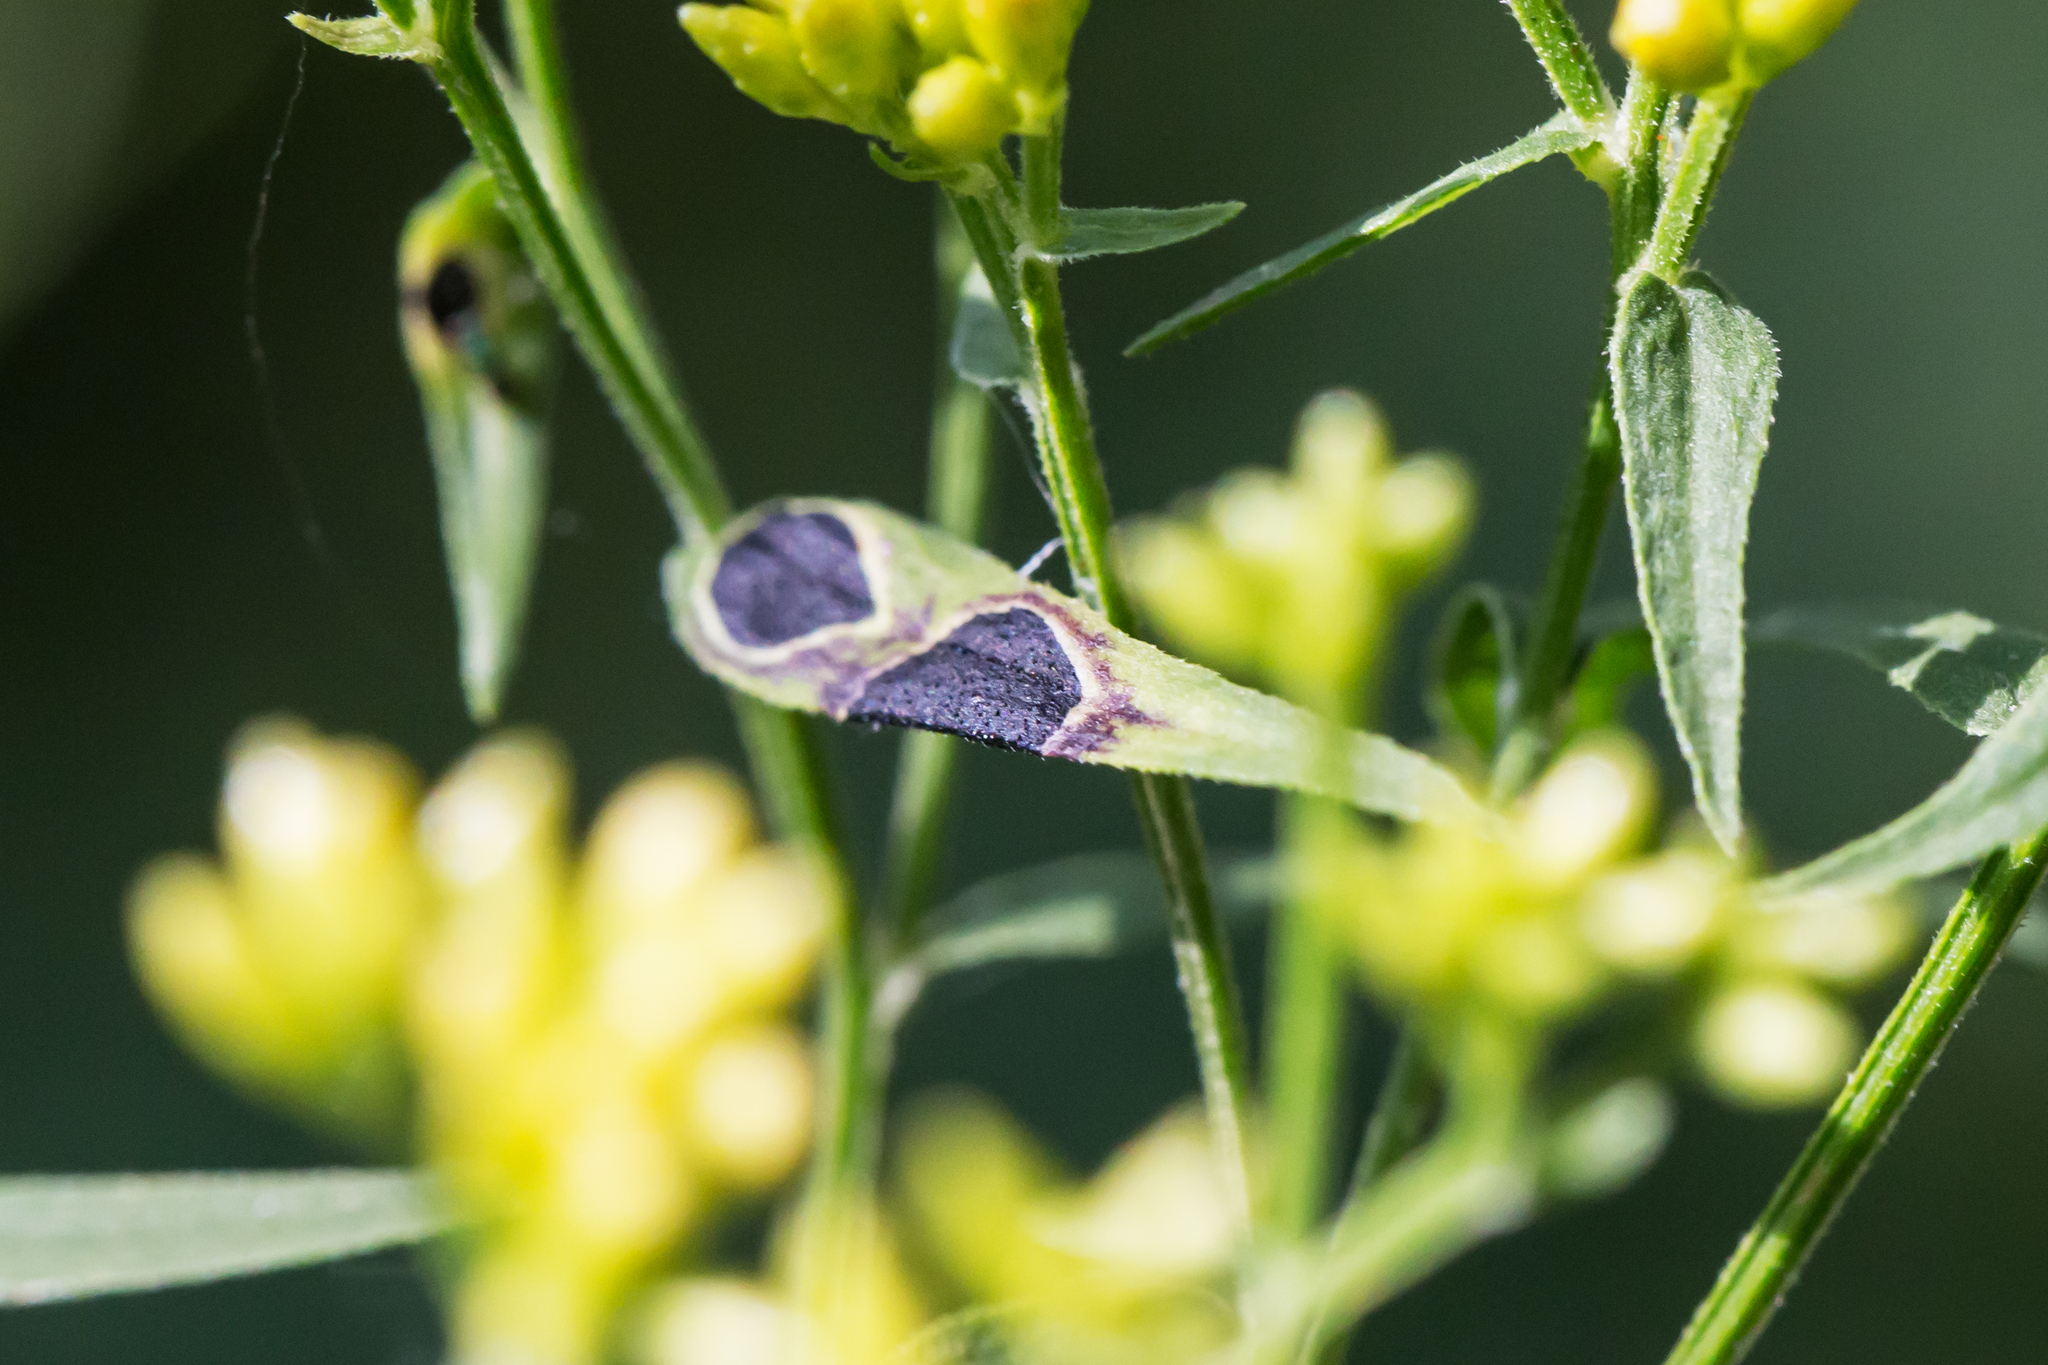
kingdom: Animalia
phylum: Arthropoda
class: Insecta
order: Diptera
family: Cecidomyiidae
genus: Asteromyia
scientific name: Asteromyia euthamiae
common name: Euthamia leaf gall midge
